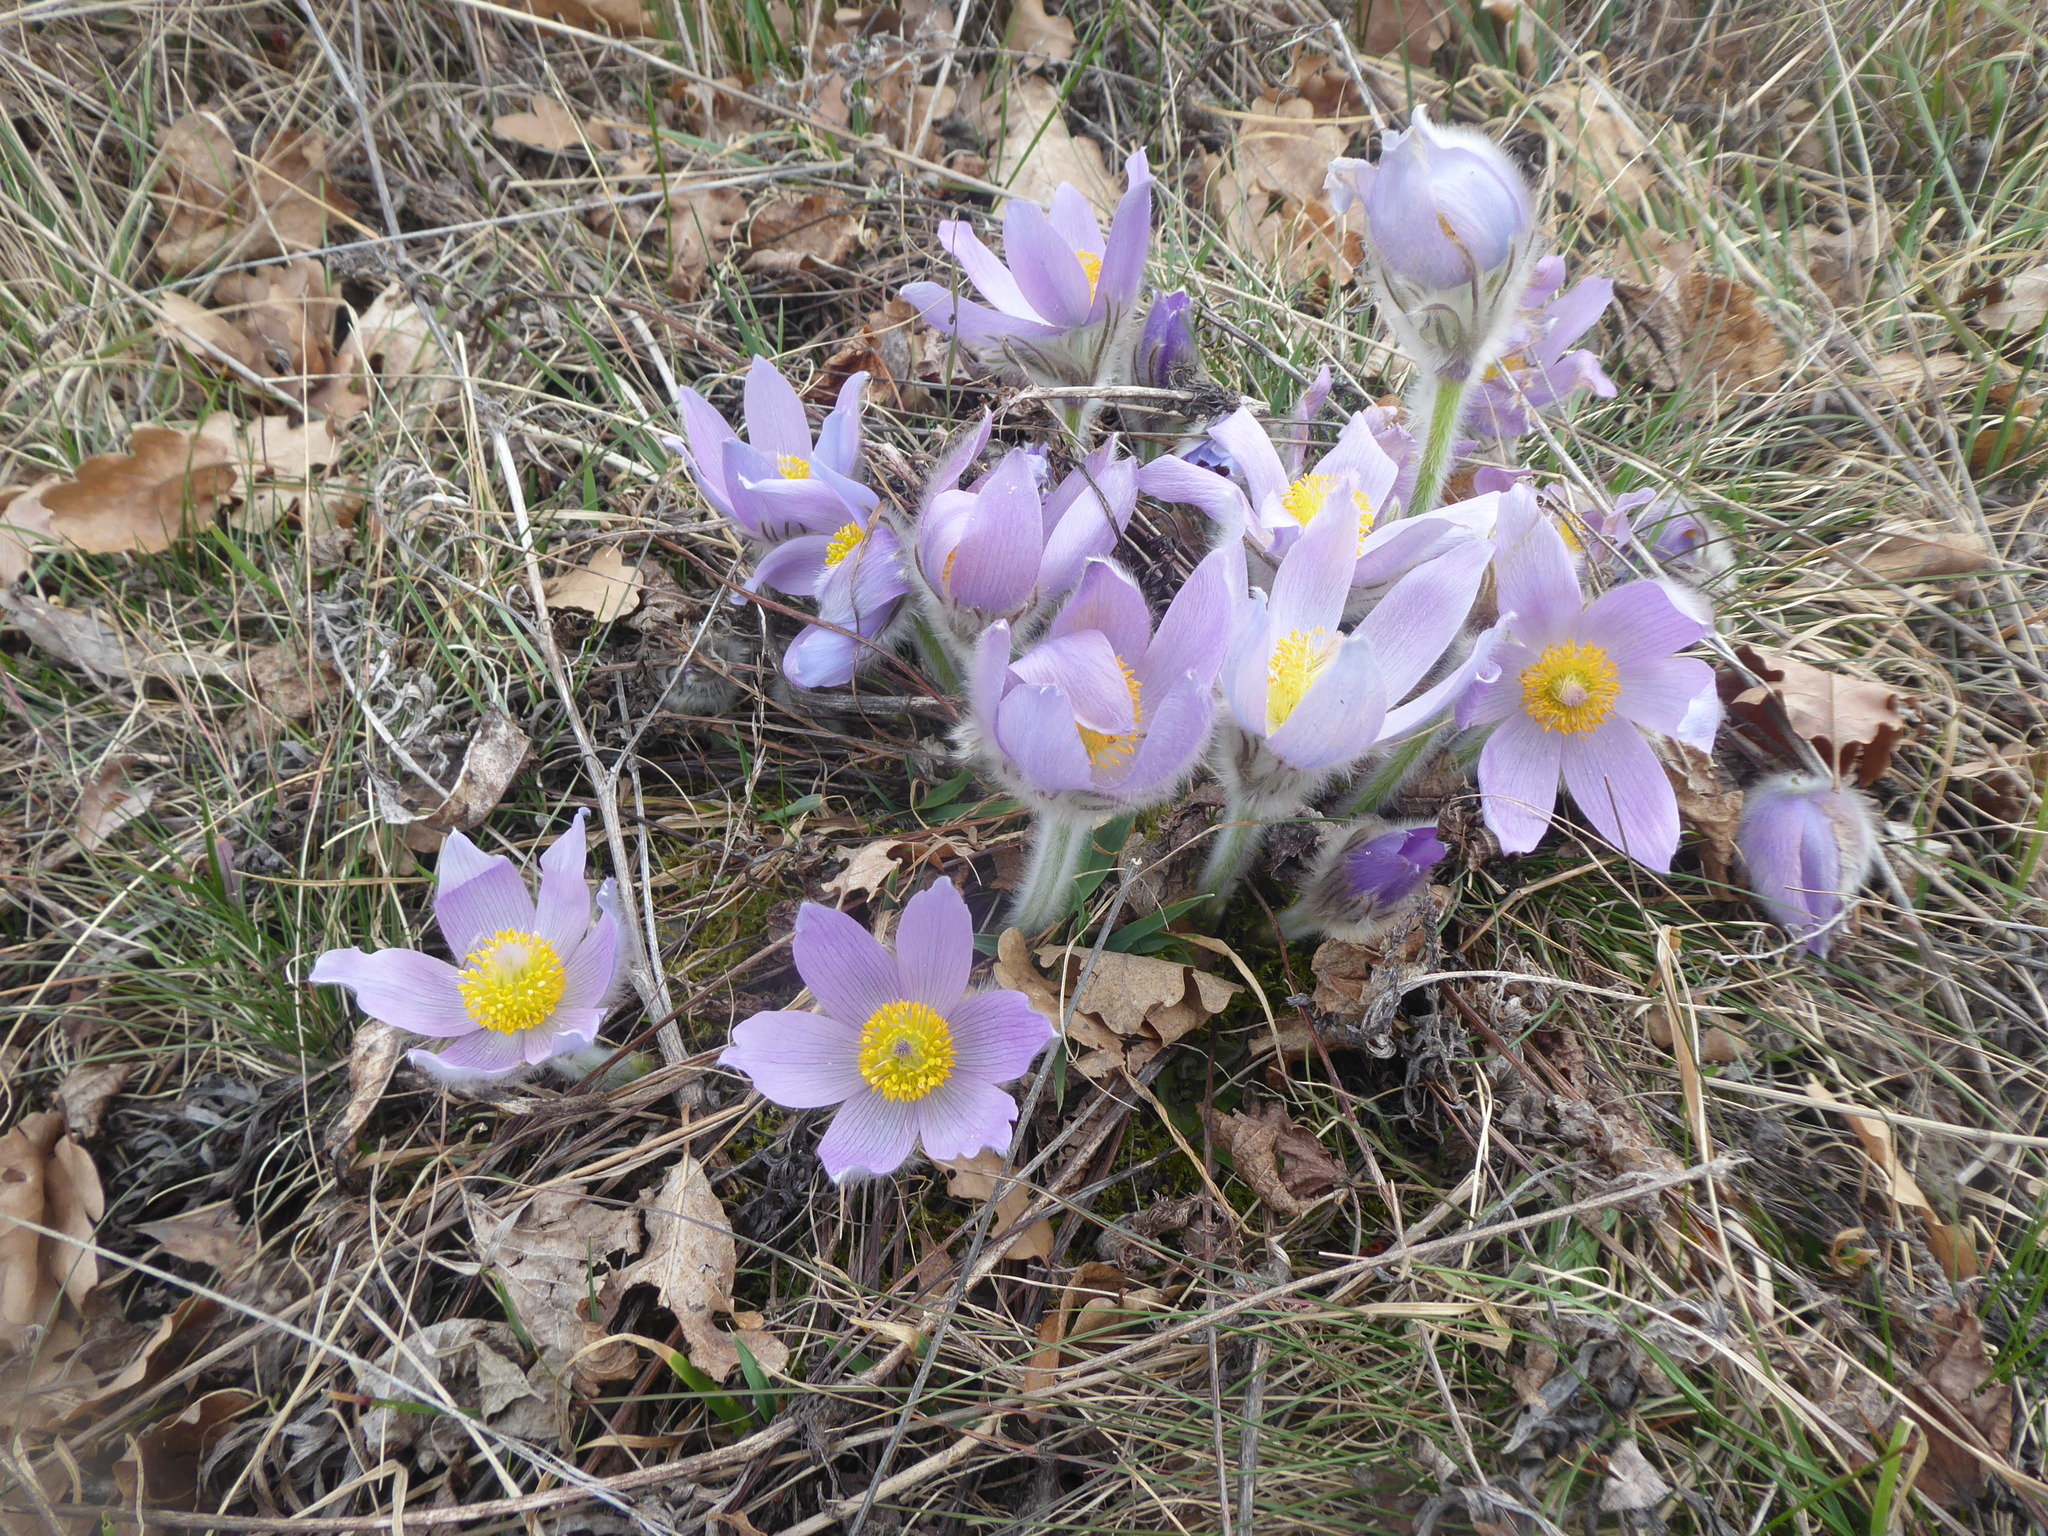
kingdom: Plantae
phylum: Tracheophyta
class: Magnoliopsida
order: Ranunculales
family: Ranunculaceae
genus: Pulsatilla
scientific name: Pulsatilla grandis
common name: Greater pasque flower
